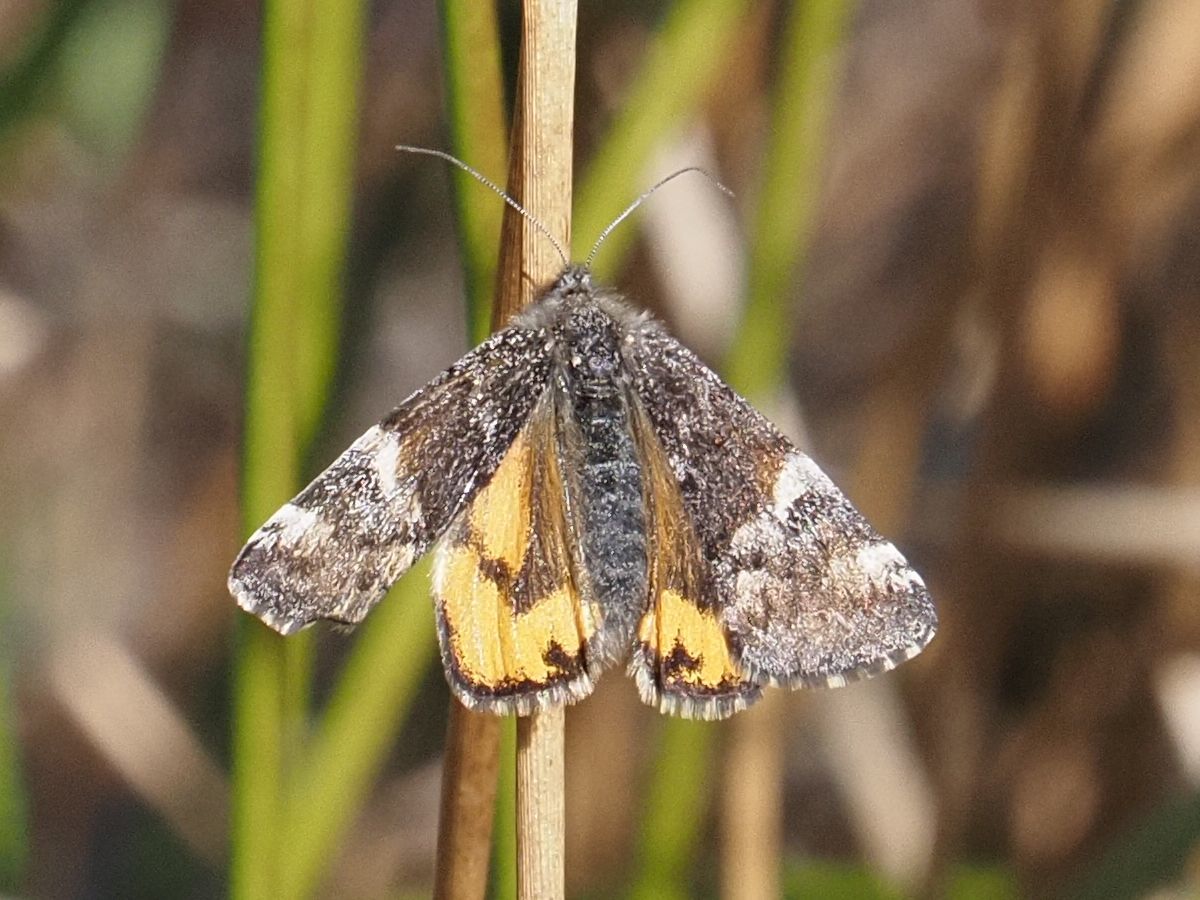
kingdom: Animalia
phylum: Arthropoda
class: Insecta
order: Lepidoptera
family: Geometridae
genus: Archiearis
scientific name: Archiearis parthenias
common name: Orange underwing
